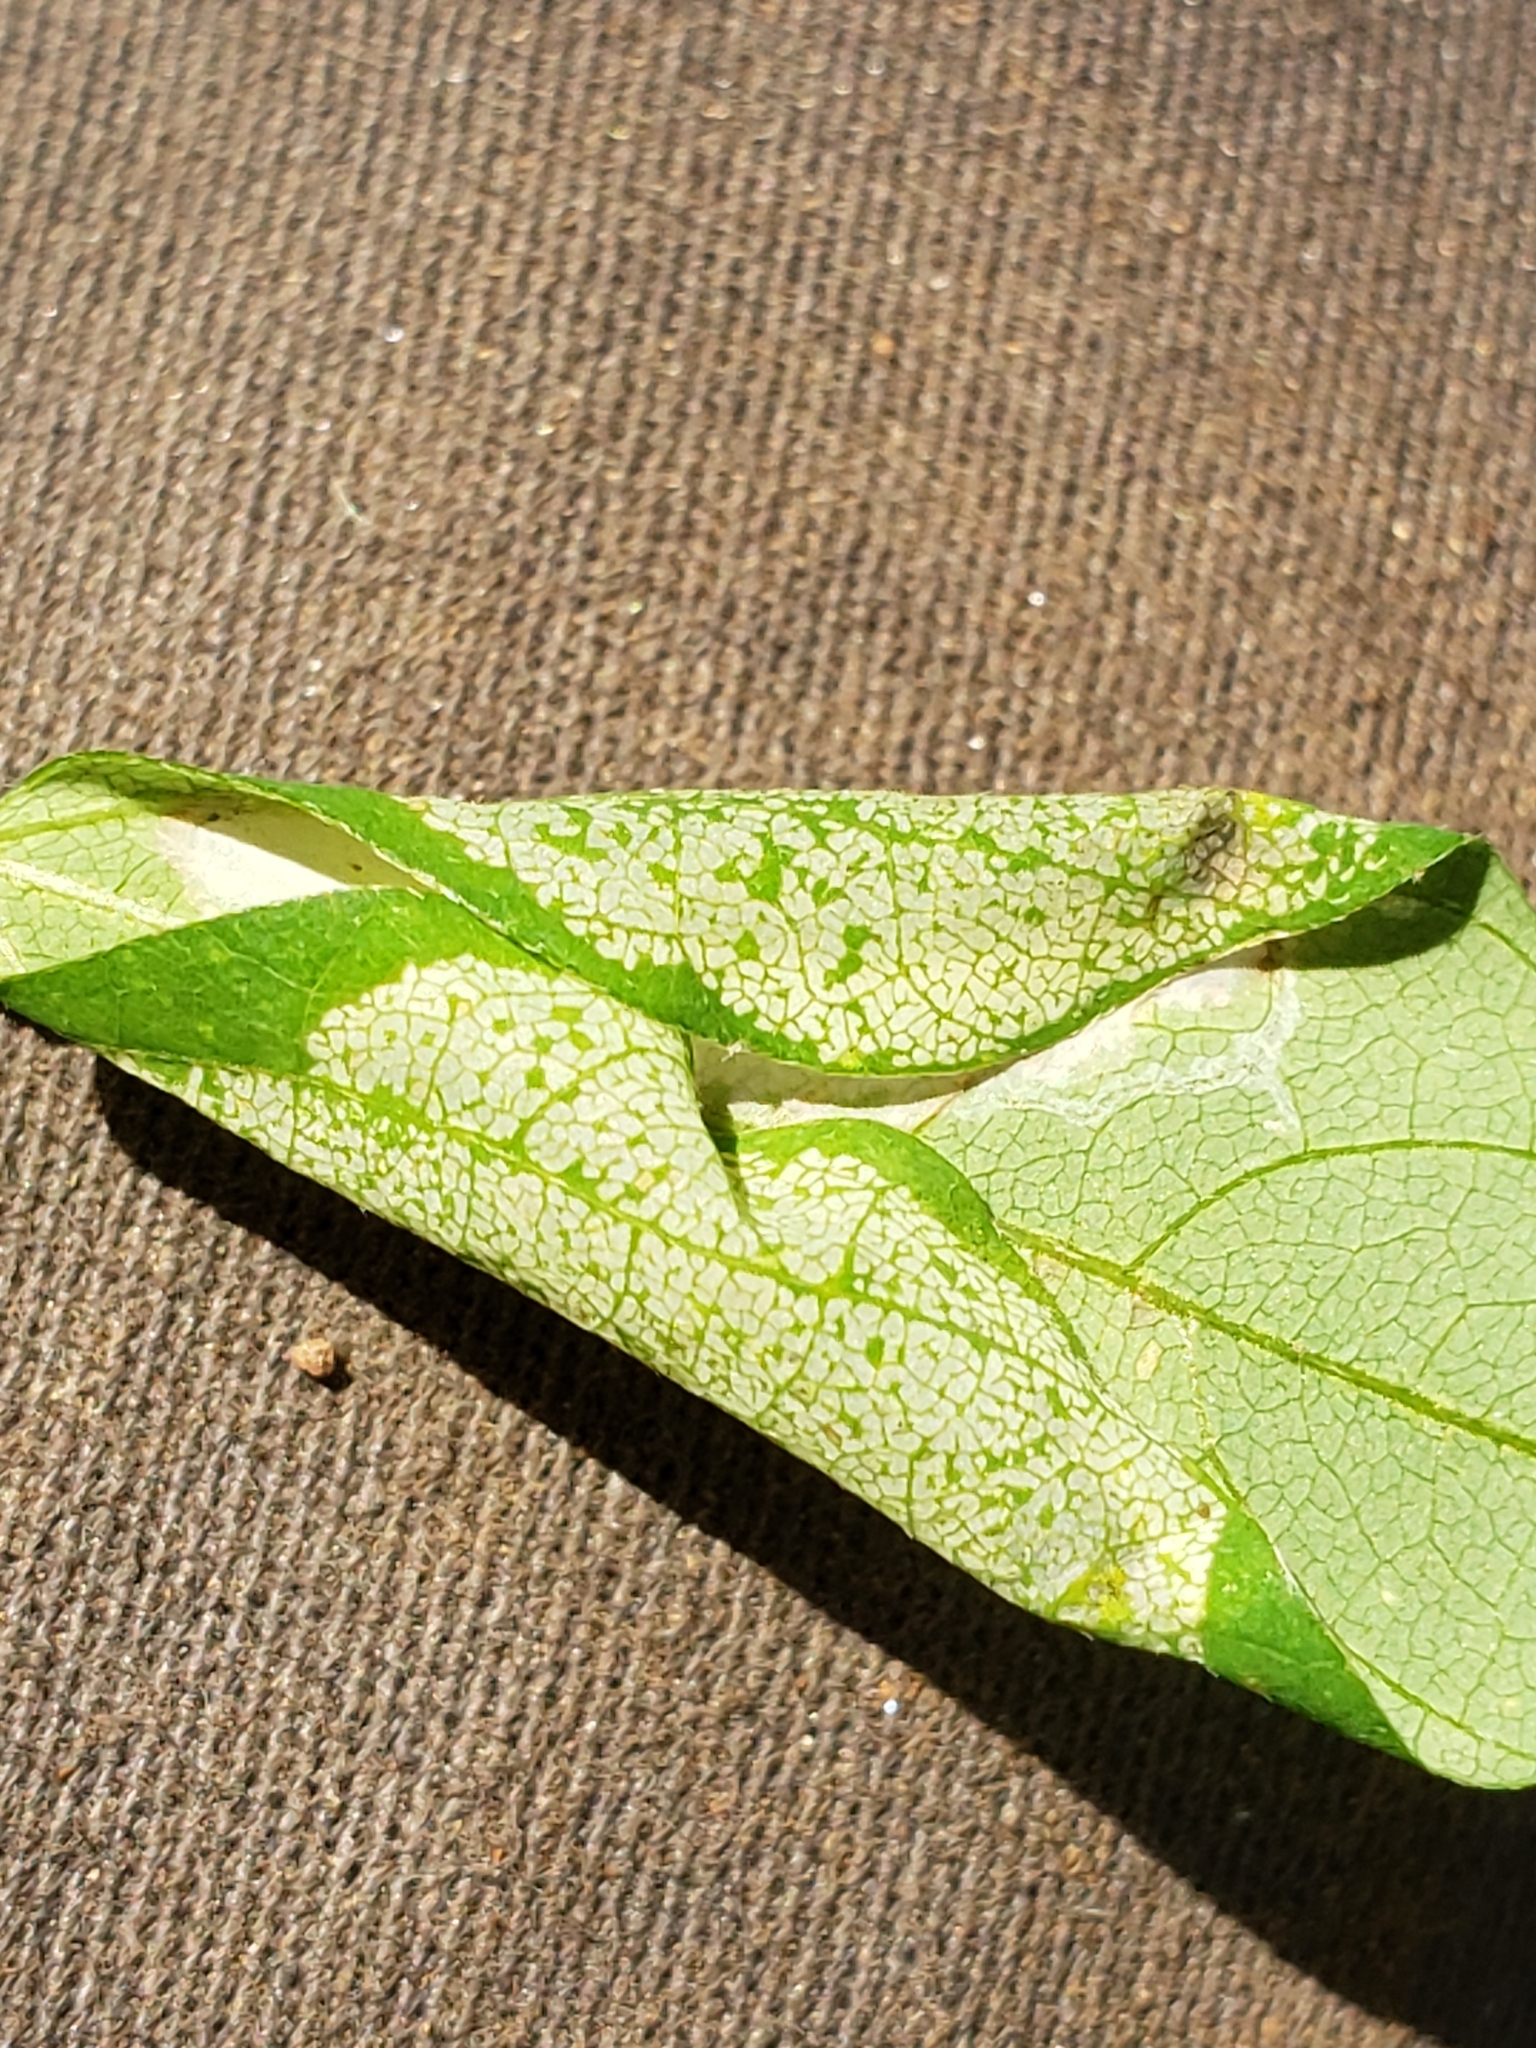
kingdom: Animalia
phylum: Arthropoda
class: Insecta
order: Lepidoptera
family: Gracillariidae
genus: Macrosaccus
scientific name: Macrosaccus morrisella
